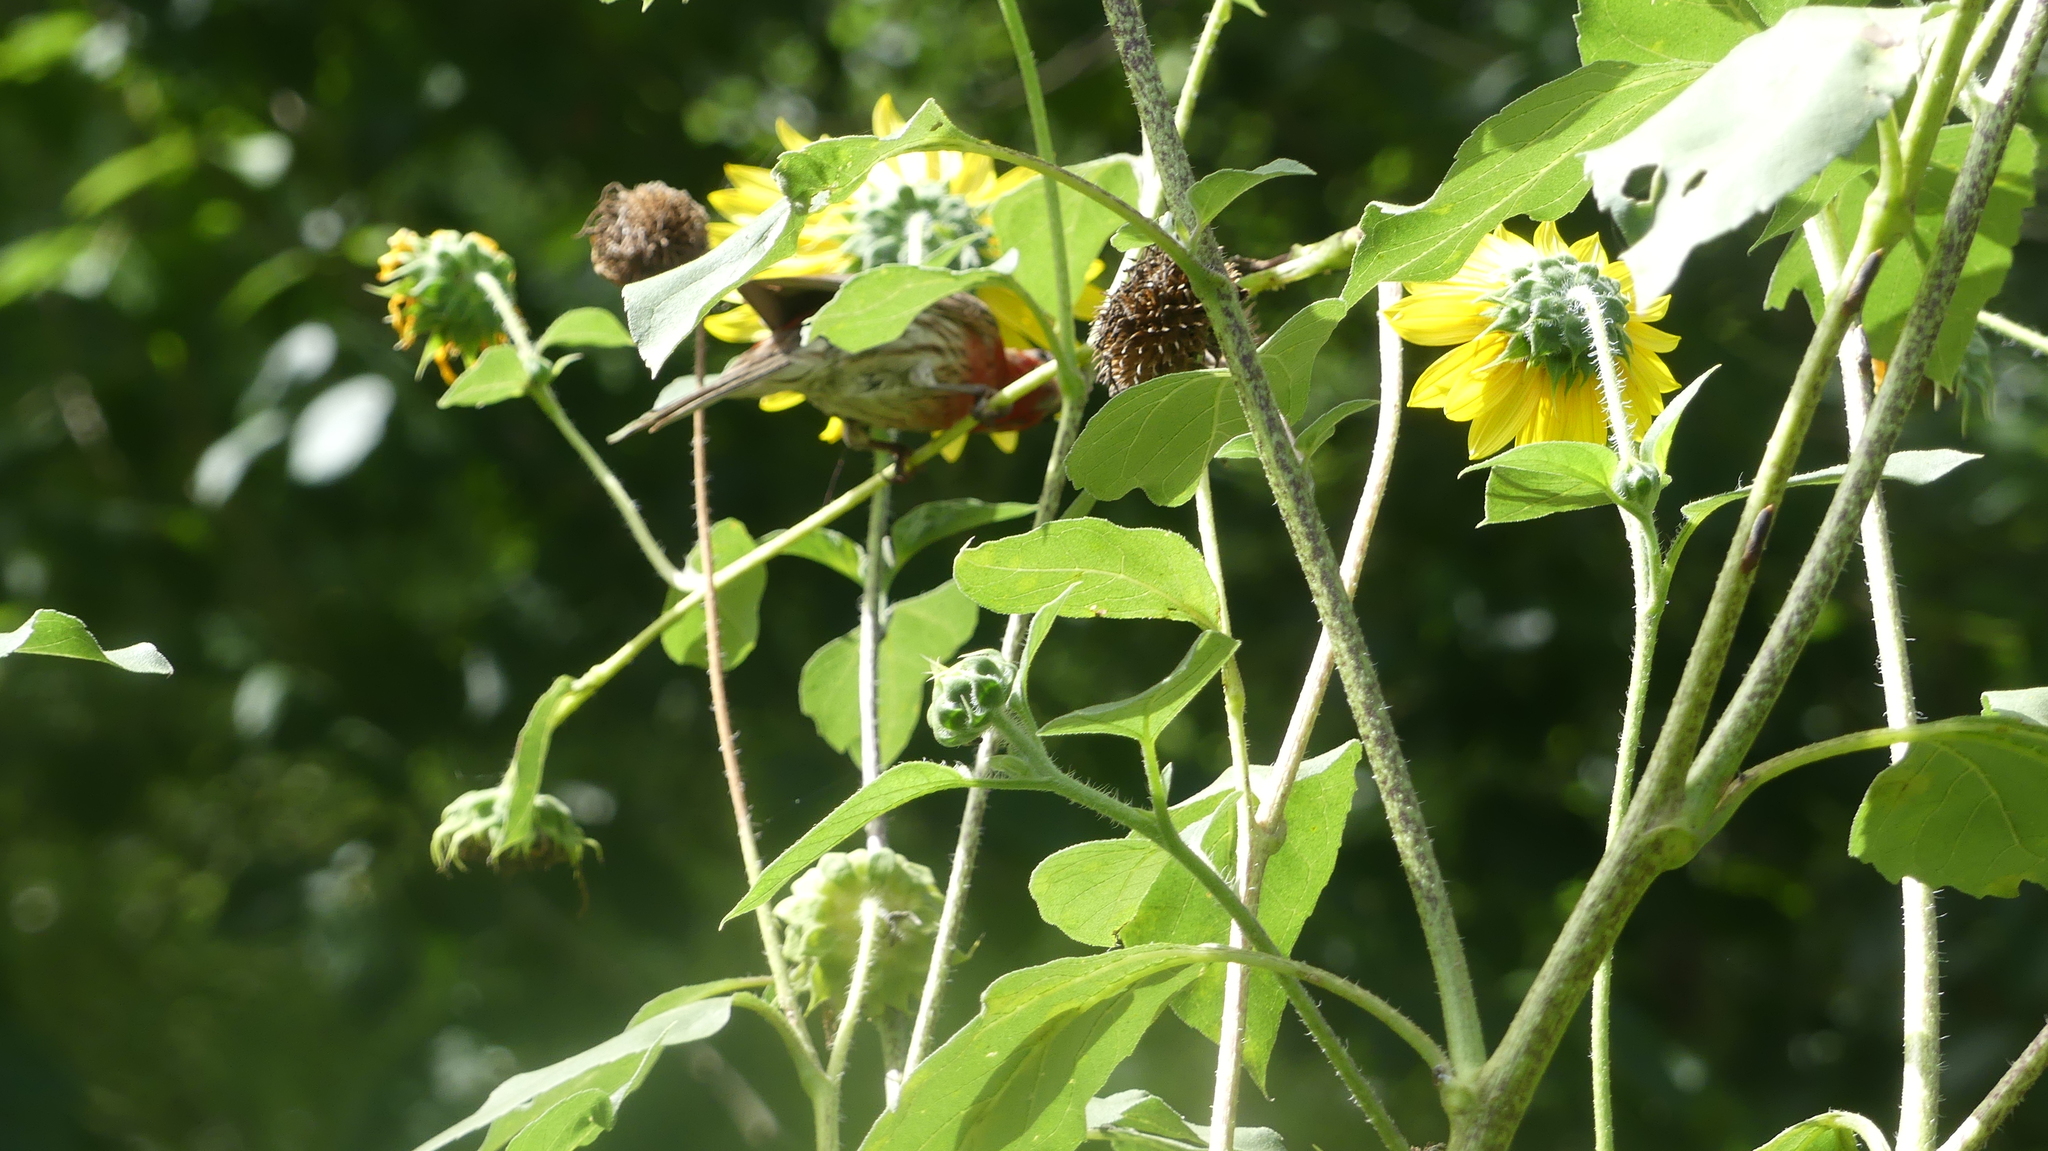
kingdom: Animalia
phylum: Chordata
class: Aves
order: Passeriformes
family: Fringillidae
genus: Haemorhous
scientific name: Haemorhous mexicanus
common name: House finch
